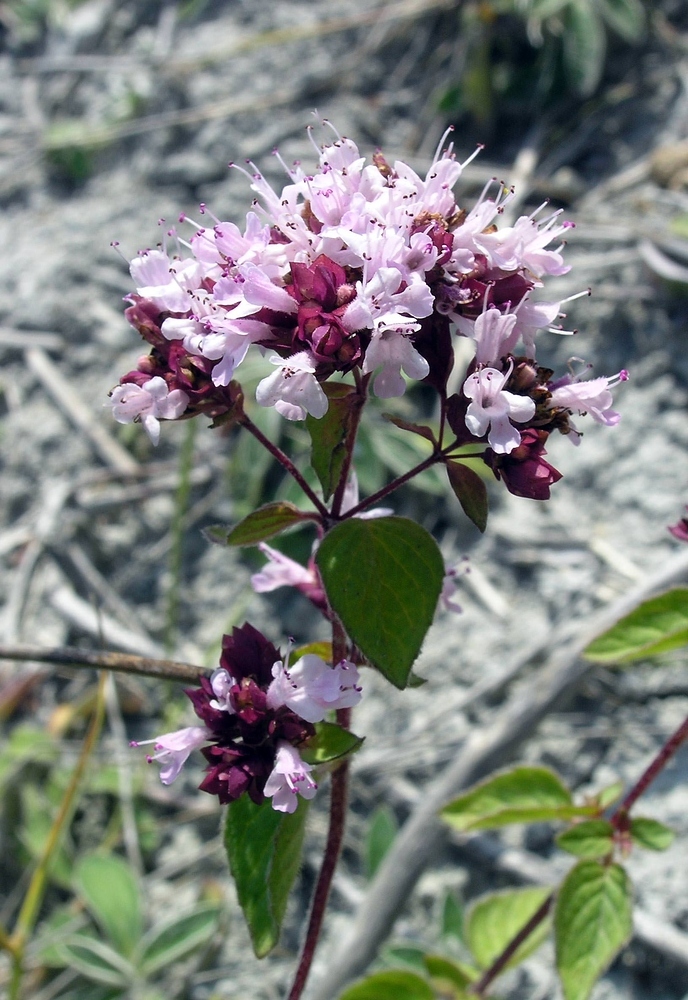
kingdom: Plantae
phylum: Tracheophyta
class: Magnoliopsida
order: Lamiales
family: Lamiaceae
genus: Origanum
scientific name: Origanum vulgare
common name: Wild marjoram
